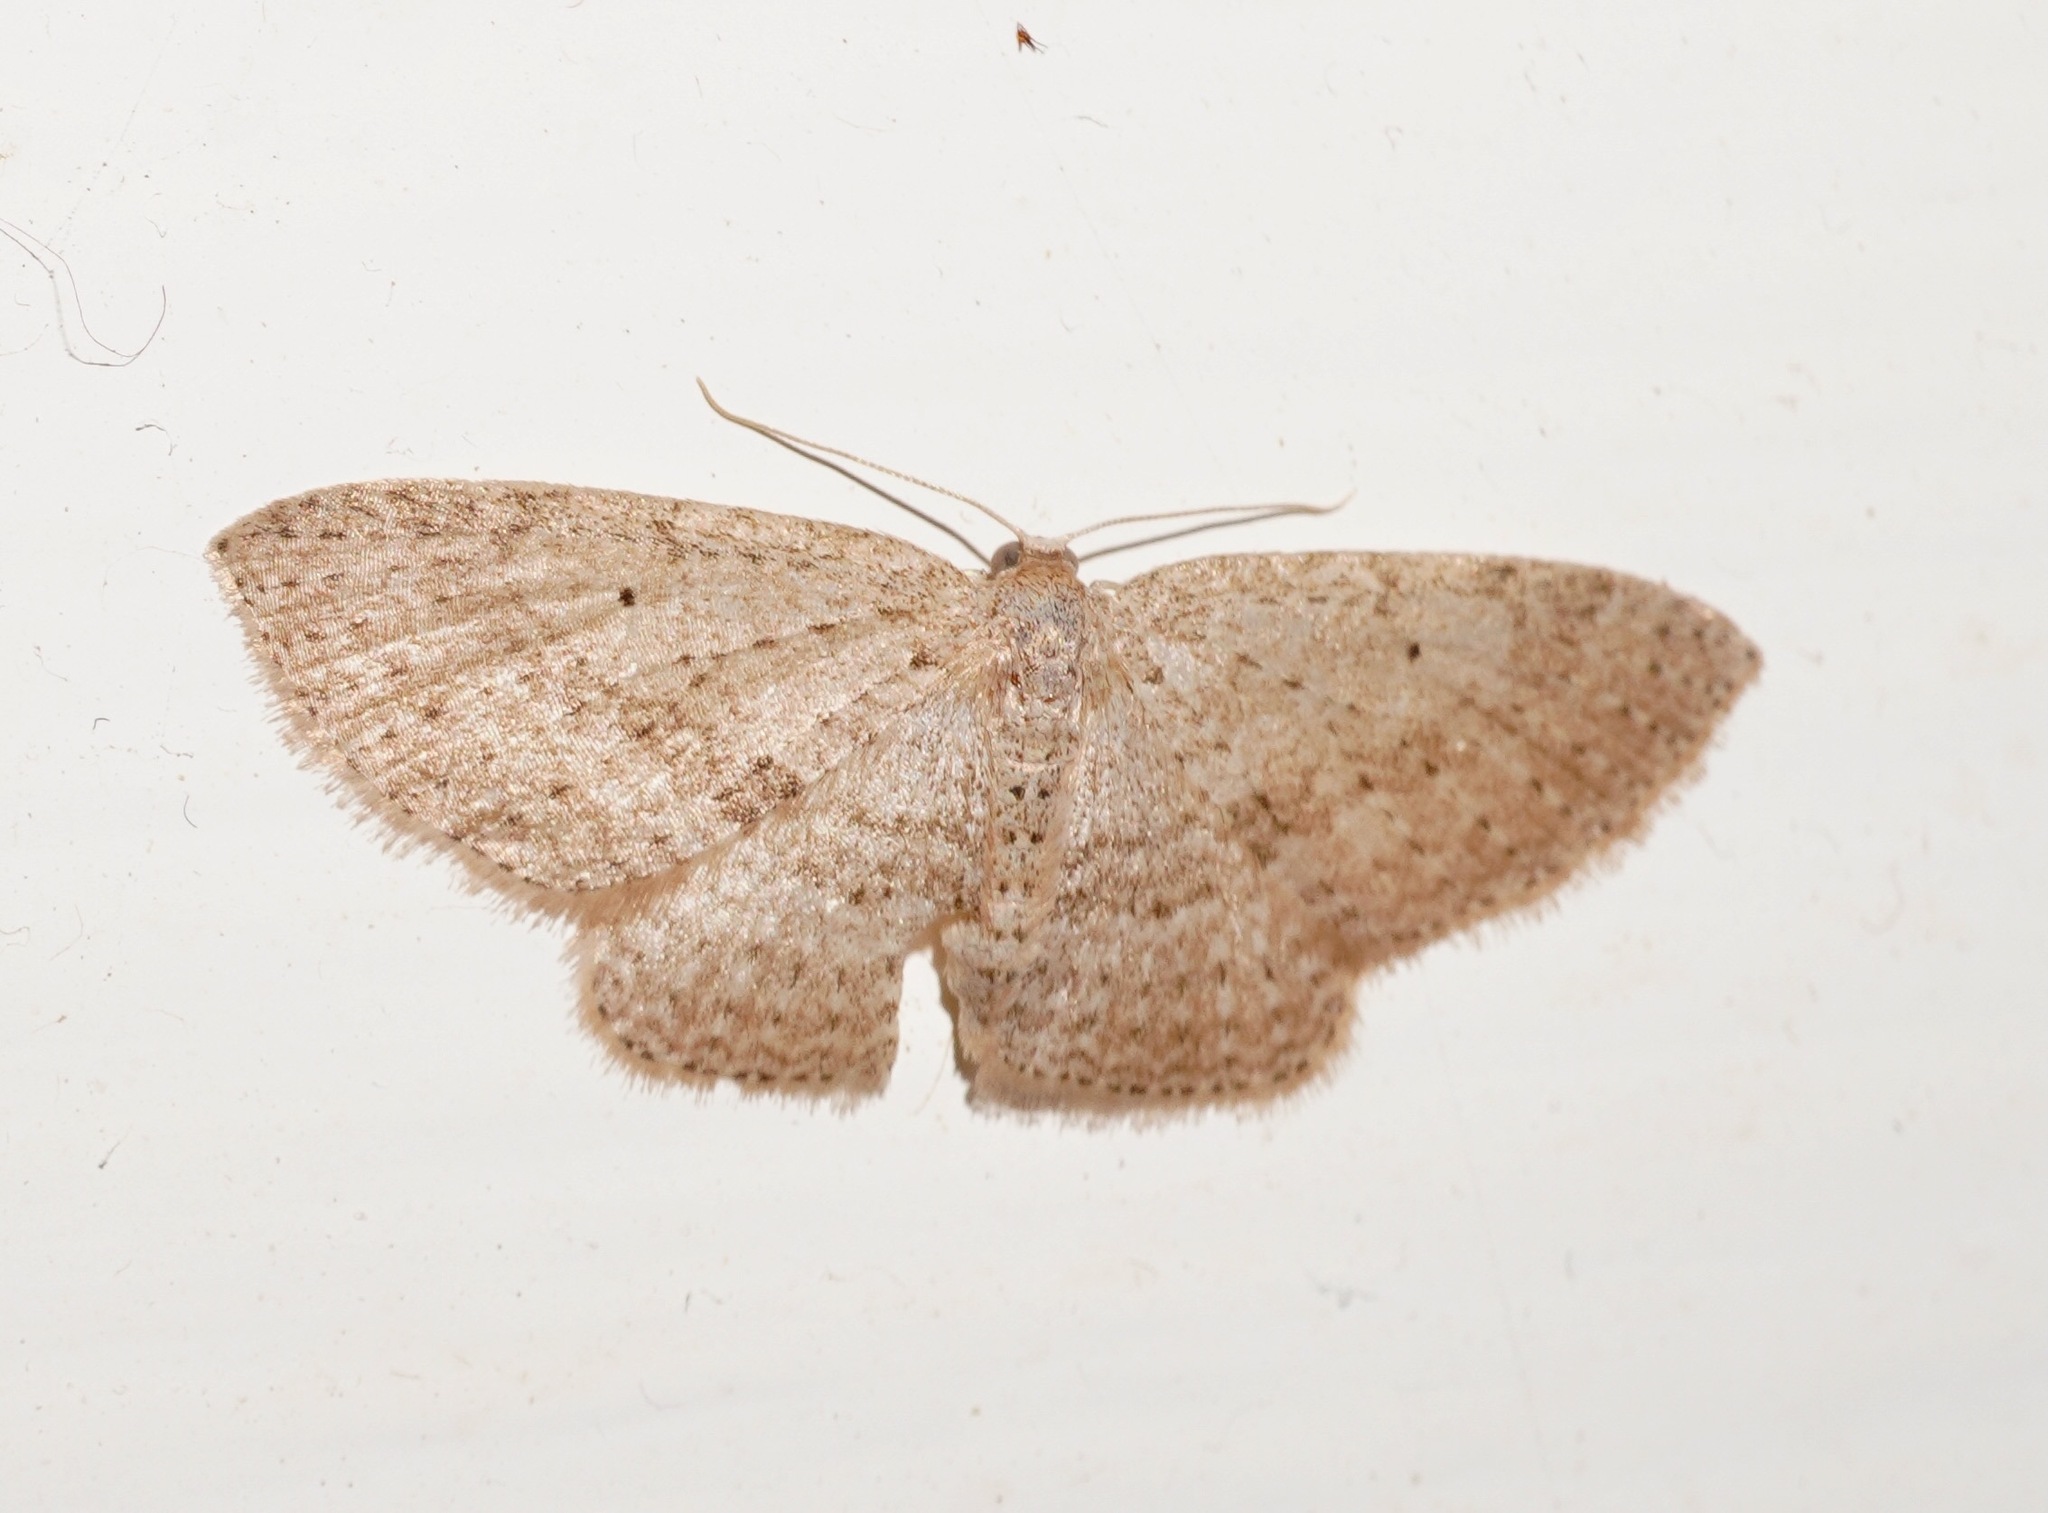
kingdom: Animalia
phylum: Arthropoda
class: Insecta
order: Lepidoptera
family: Geometridae
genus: Poecilasthena
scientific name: Poecilasthena schistaria
